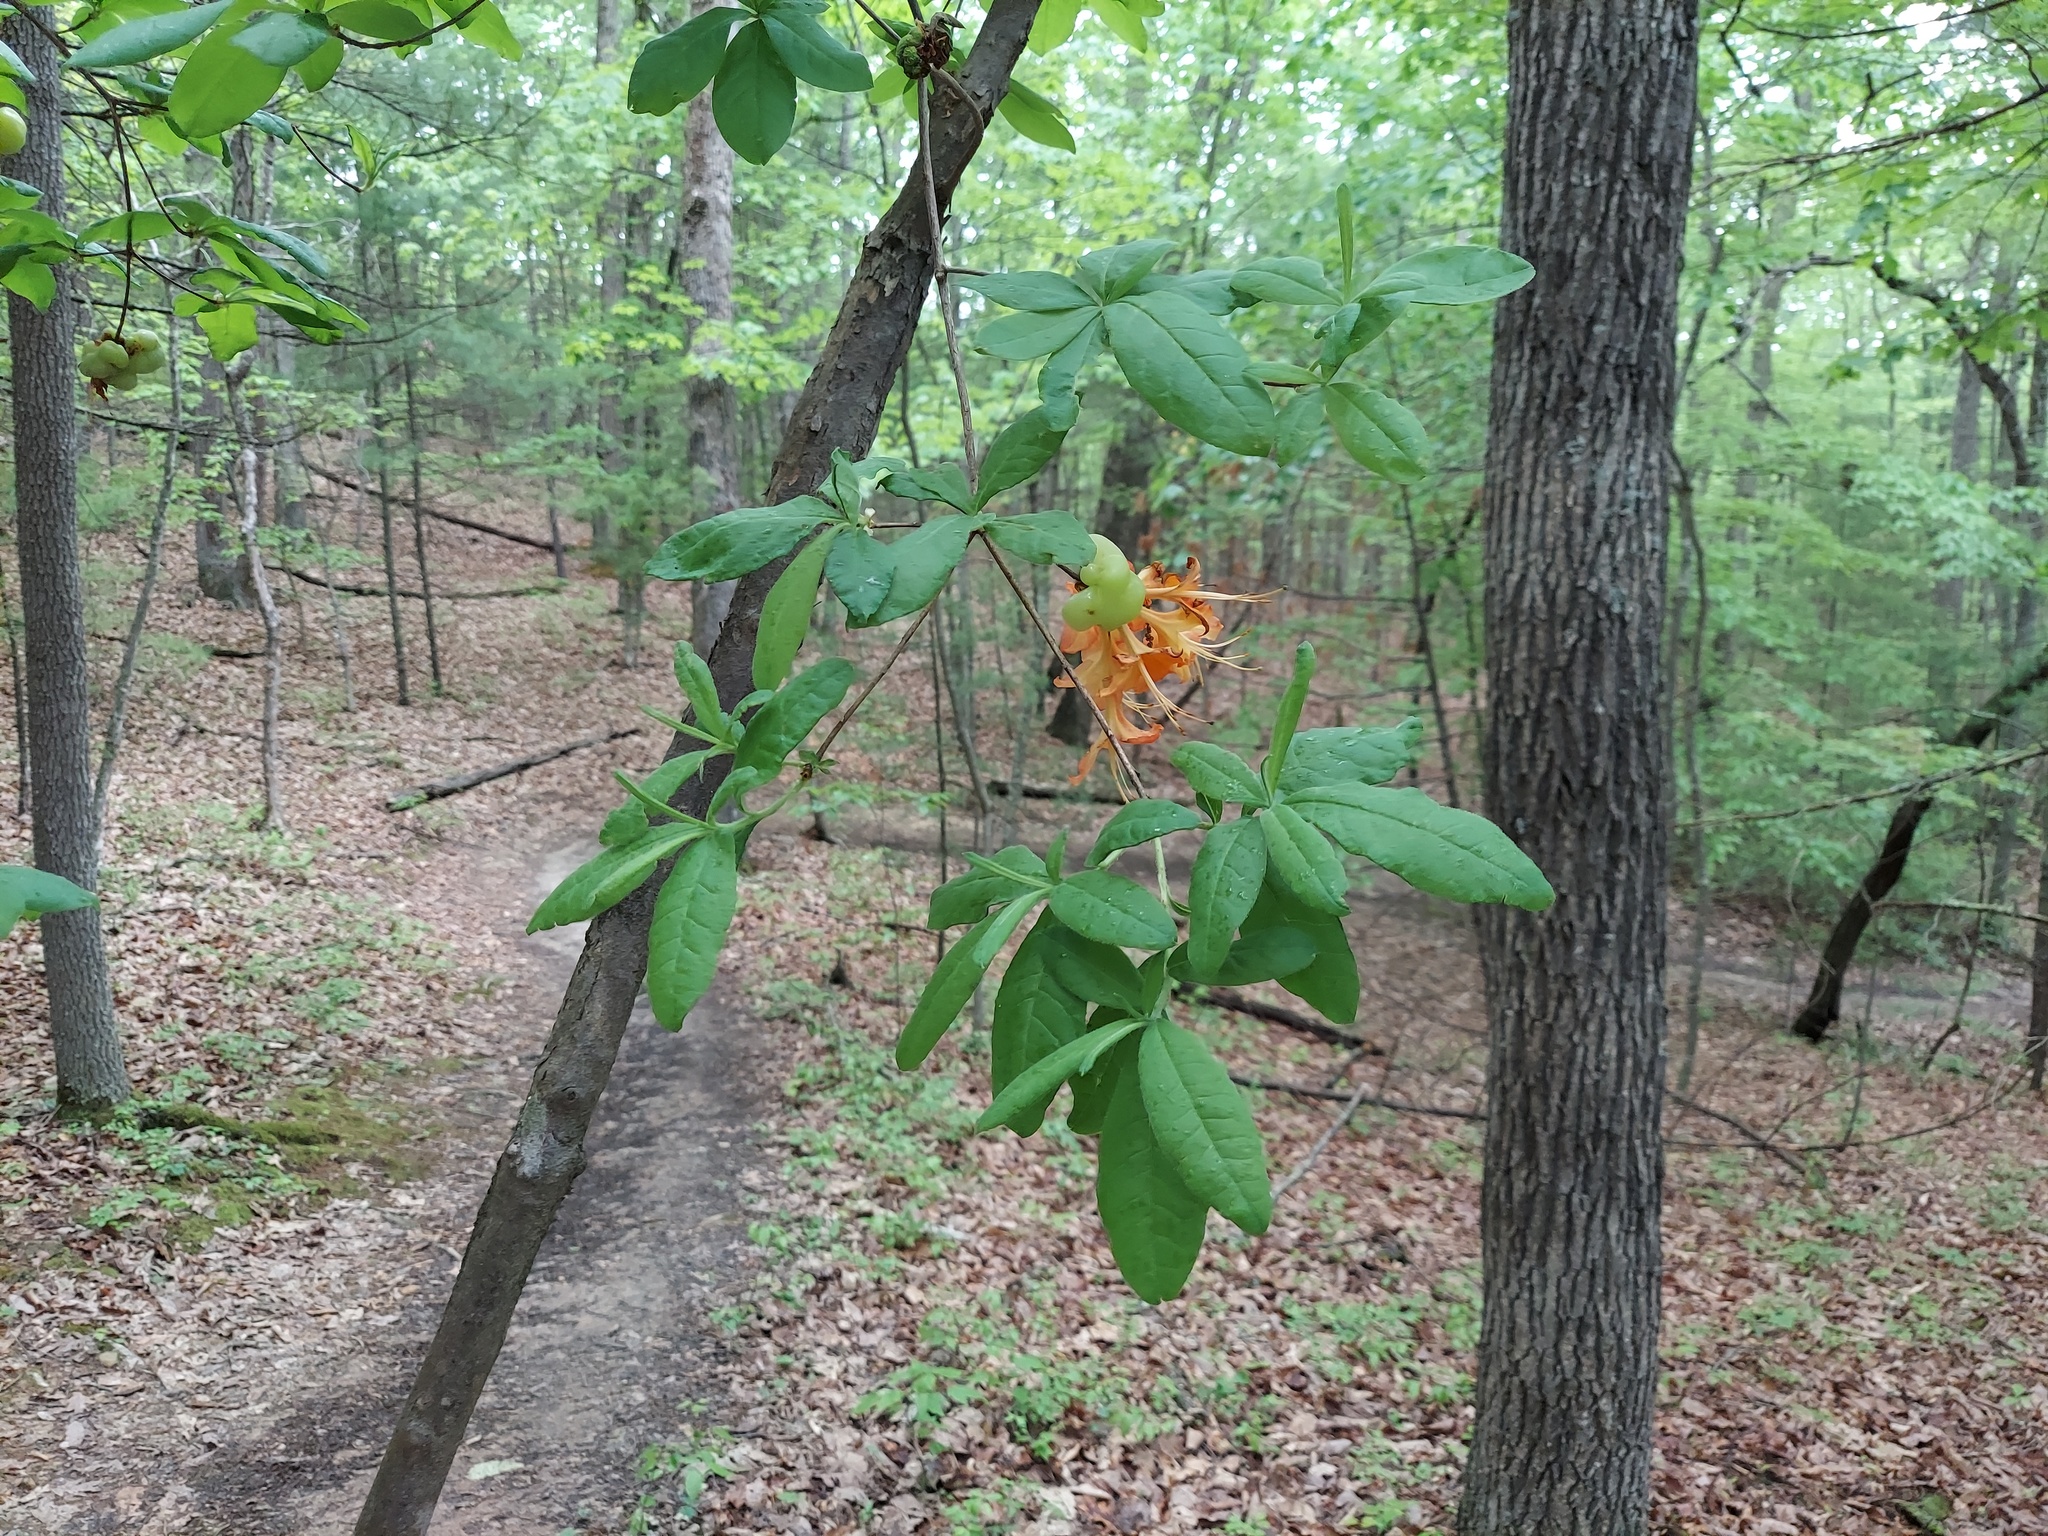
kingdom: Plantae
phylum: Tracheophyta
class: Magnoliopsida
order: Ericales
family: Ericaceae
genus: Rhododendron
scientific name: Rhododendron calendulaceum
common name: Flame azalea
